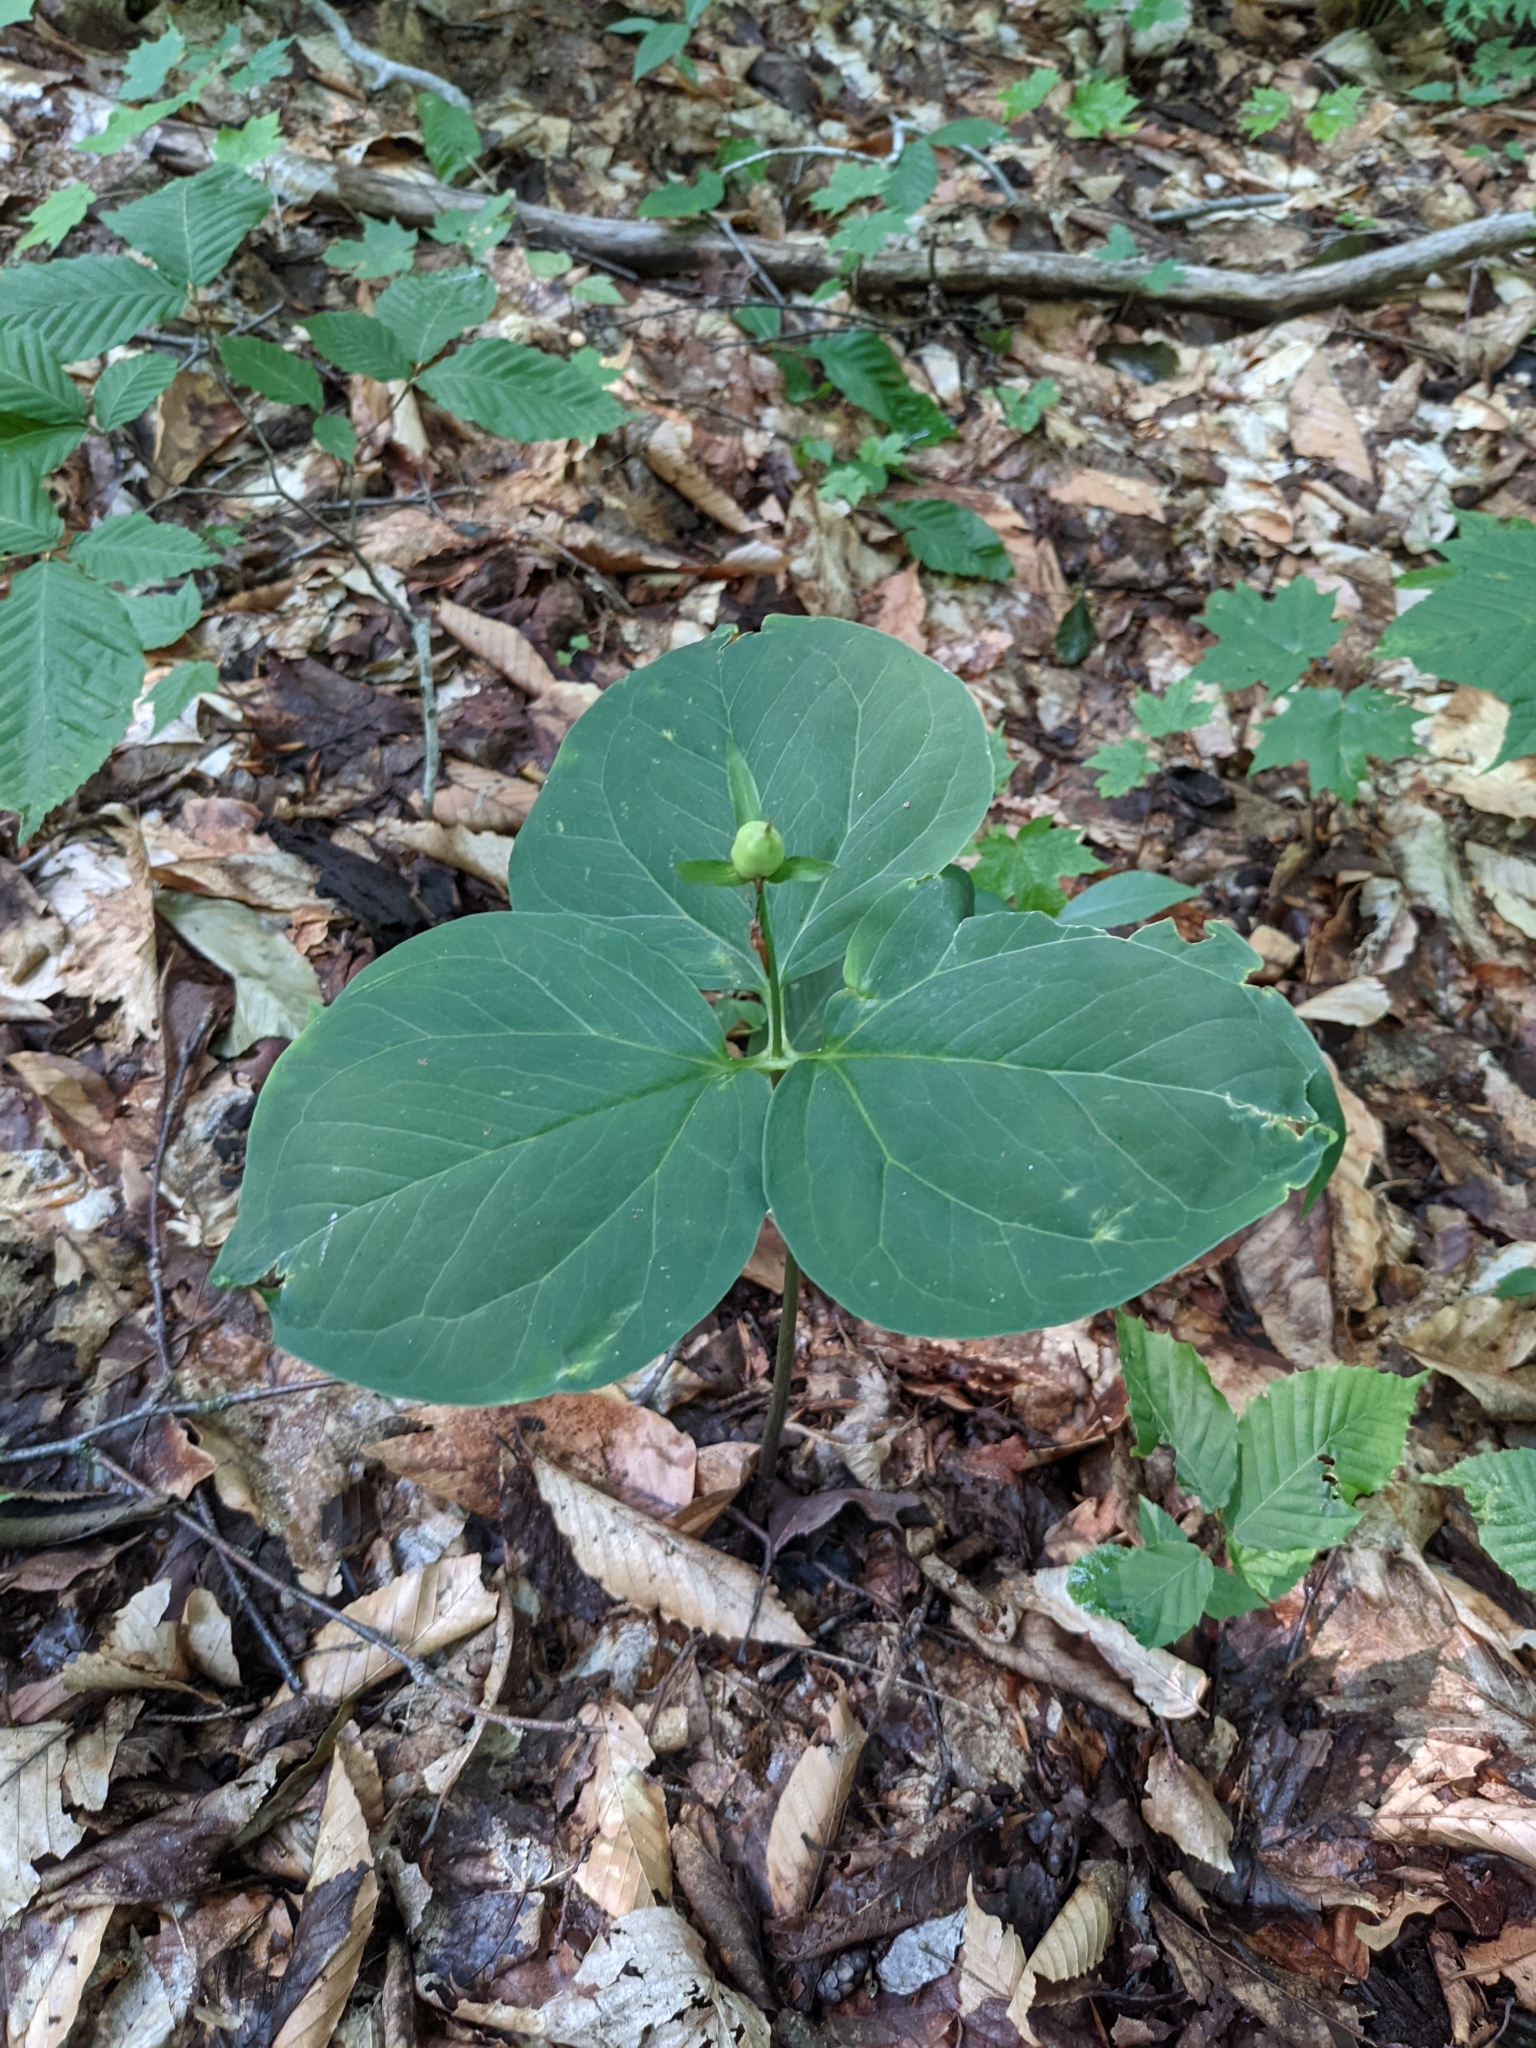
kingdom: Plantae
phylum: Tracheophyta
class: Liliopsida
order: Liliales
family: Melanthiaceae
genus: Trillium
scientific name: Trillium undulatum
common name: Paint trillium
